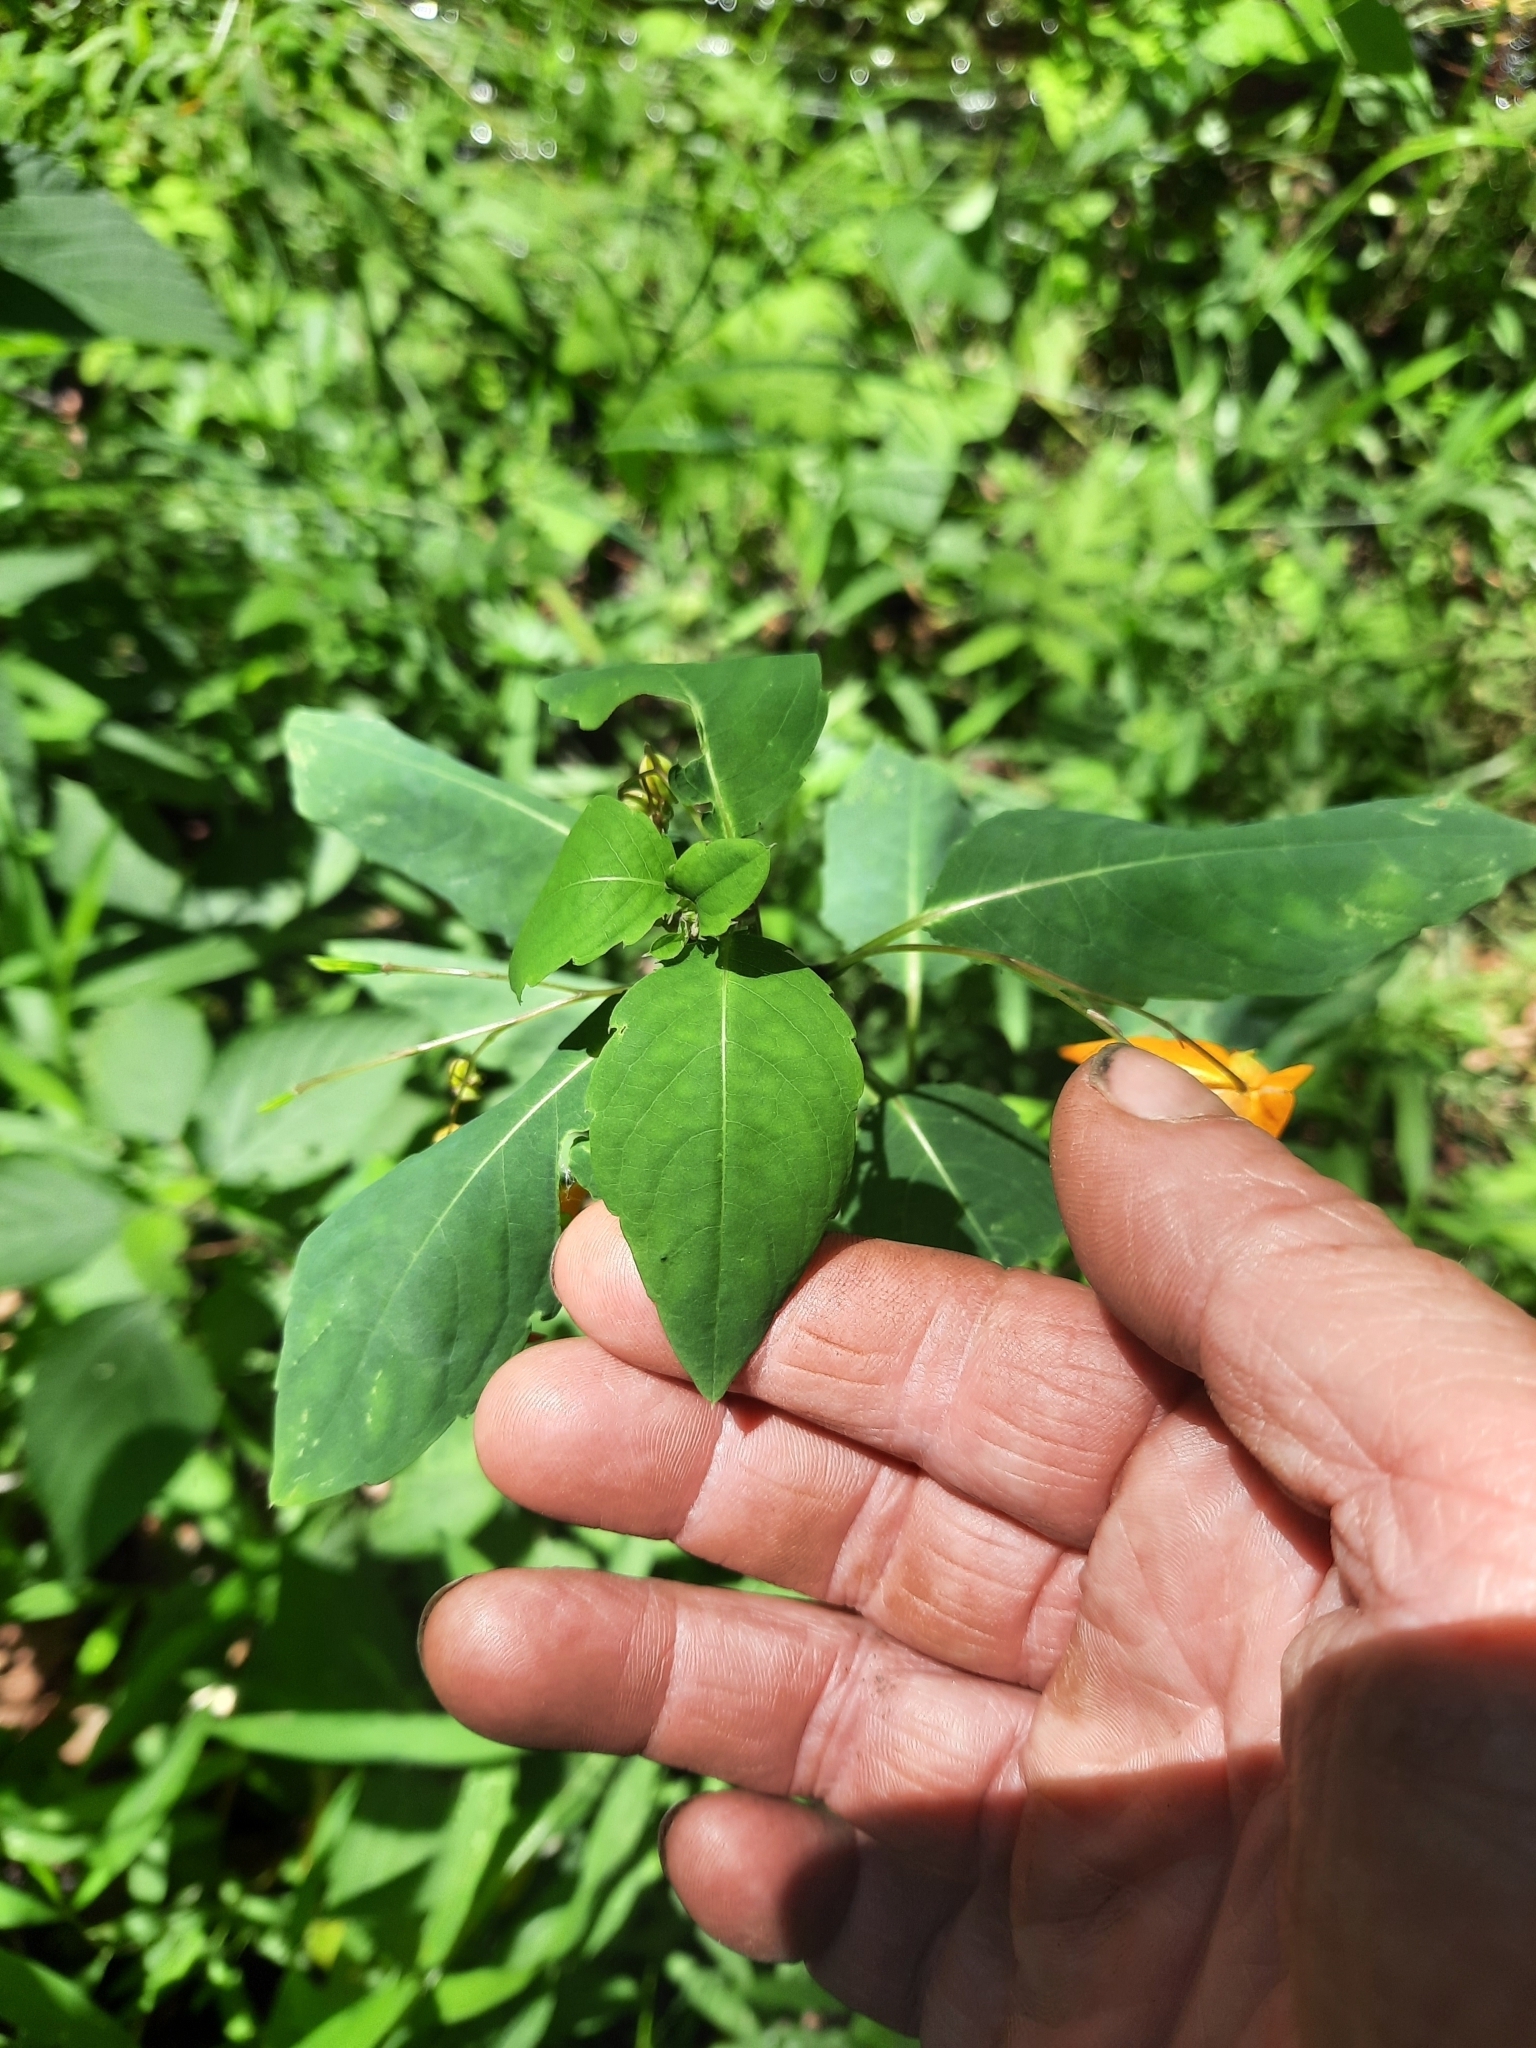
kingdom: Plantae
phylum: Tracheophyta
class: Magnoliopsida
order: Ericales
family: Balsaminaceae
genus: Impatiens
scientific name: Impatiens capensis
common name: Orange balsam
